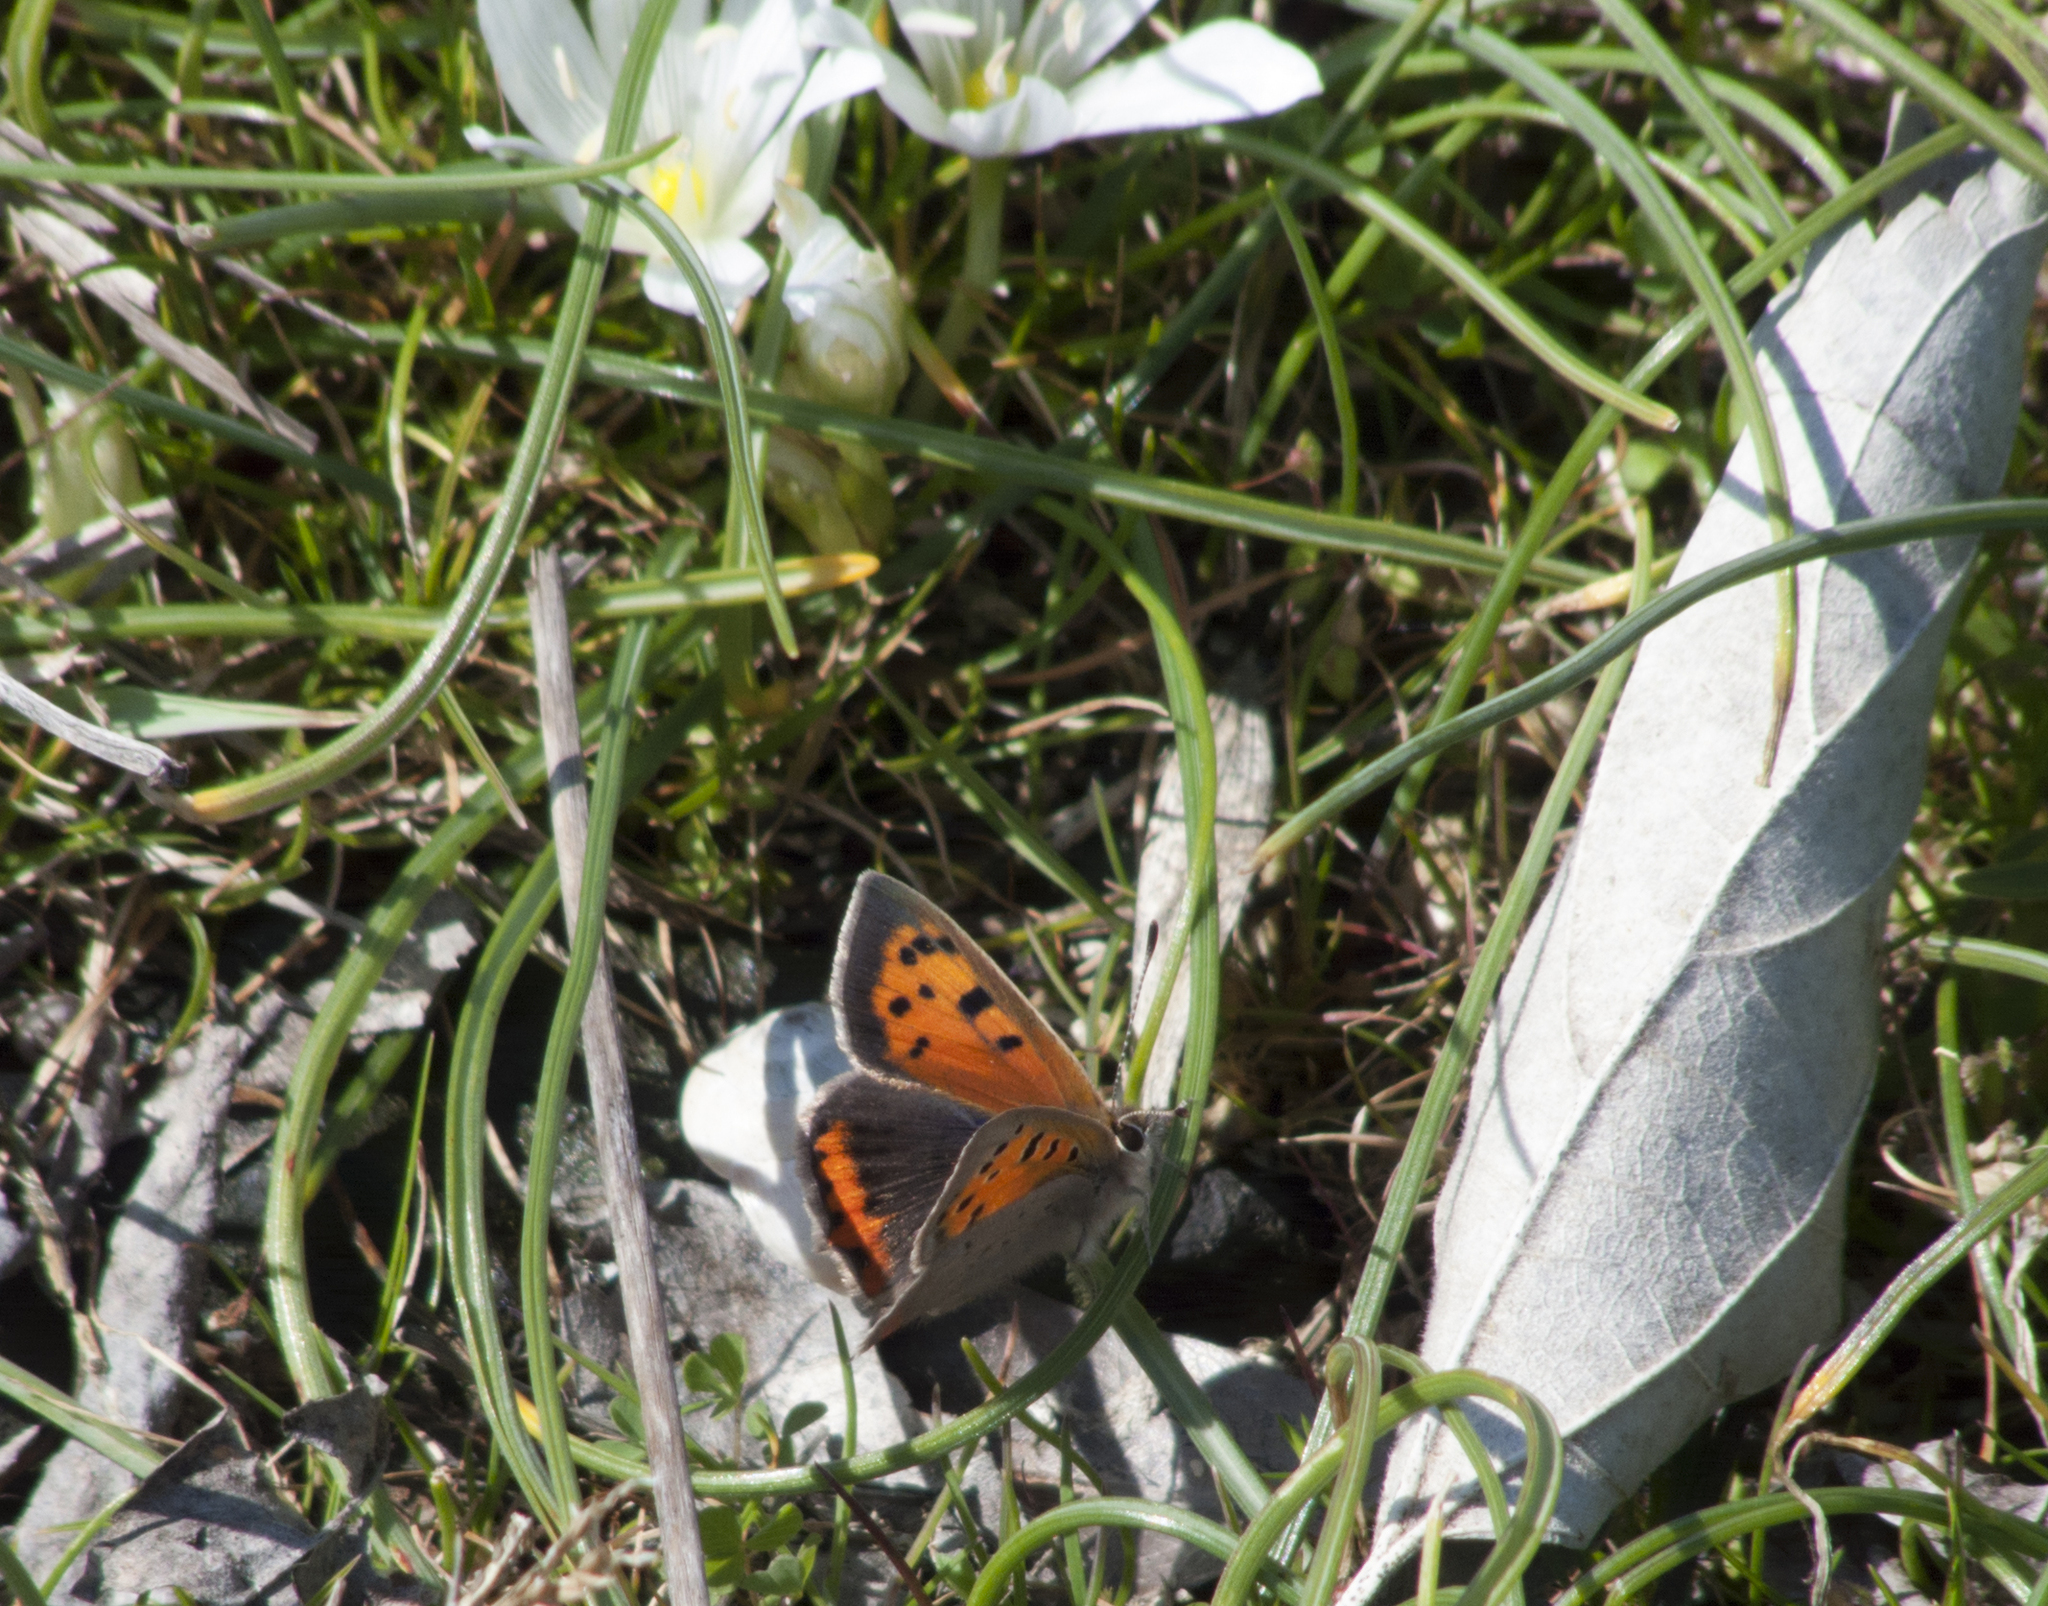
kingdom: Animalia
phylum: Arthropoda
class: Insecta
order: Lepidoptera
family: Lycaenidae
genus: Lycaena
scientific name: Lycaena phlaeas
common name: Small copper
